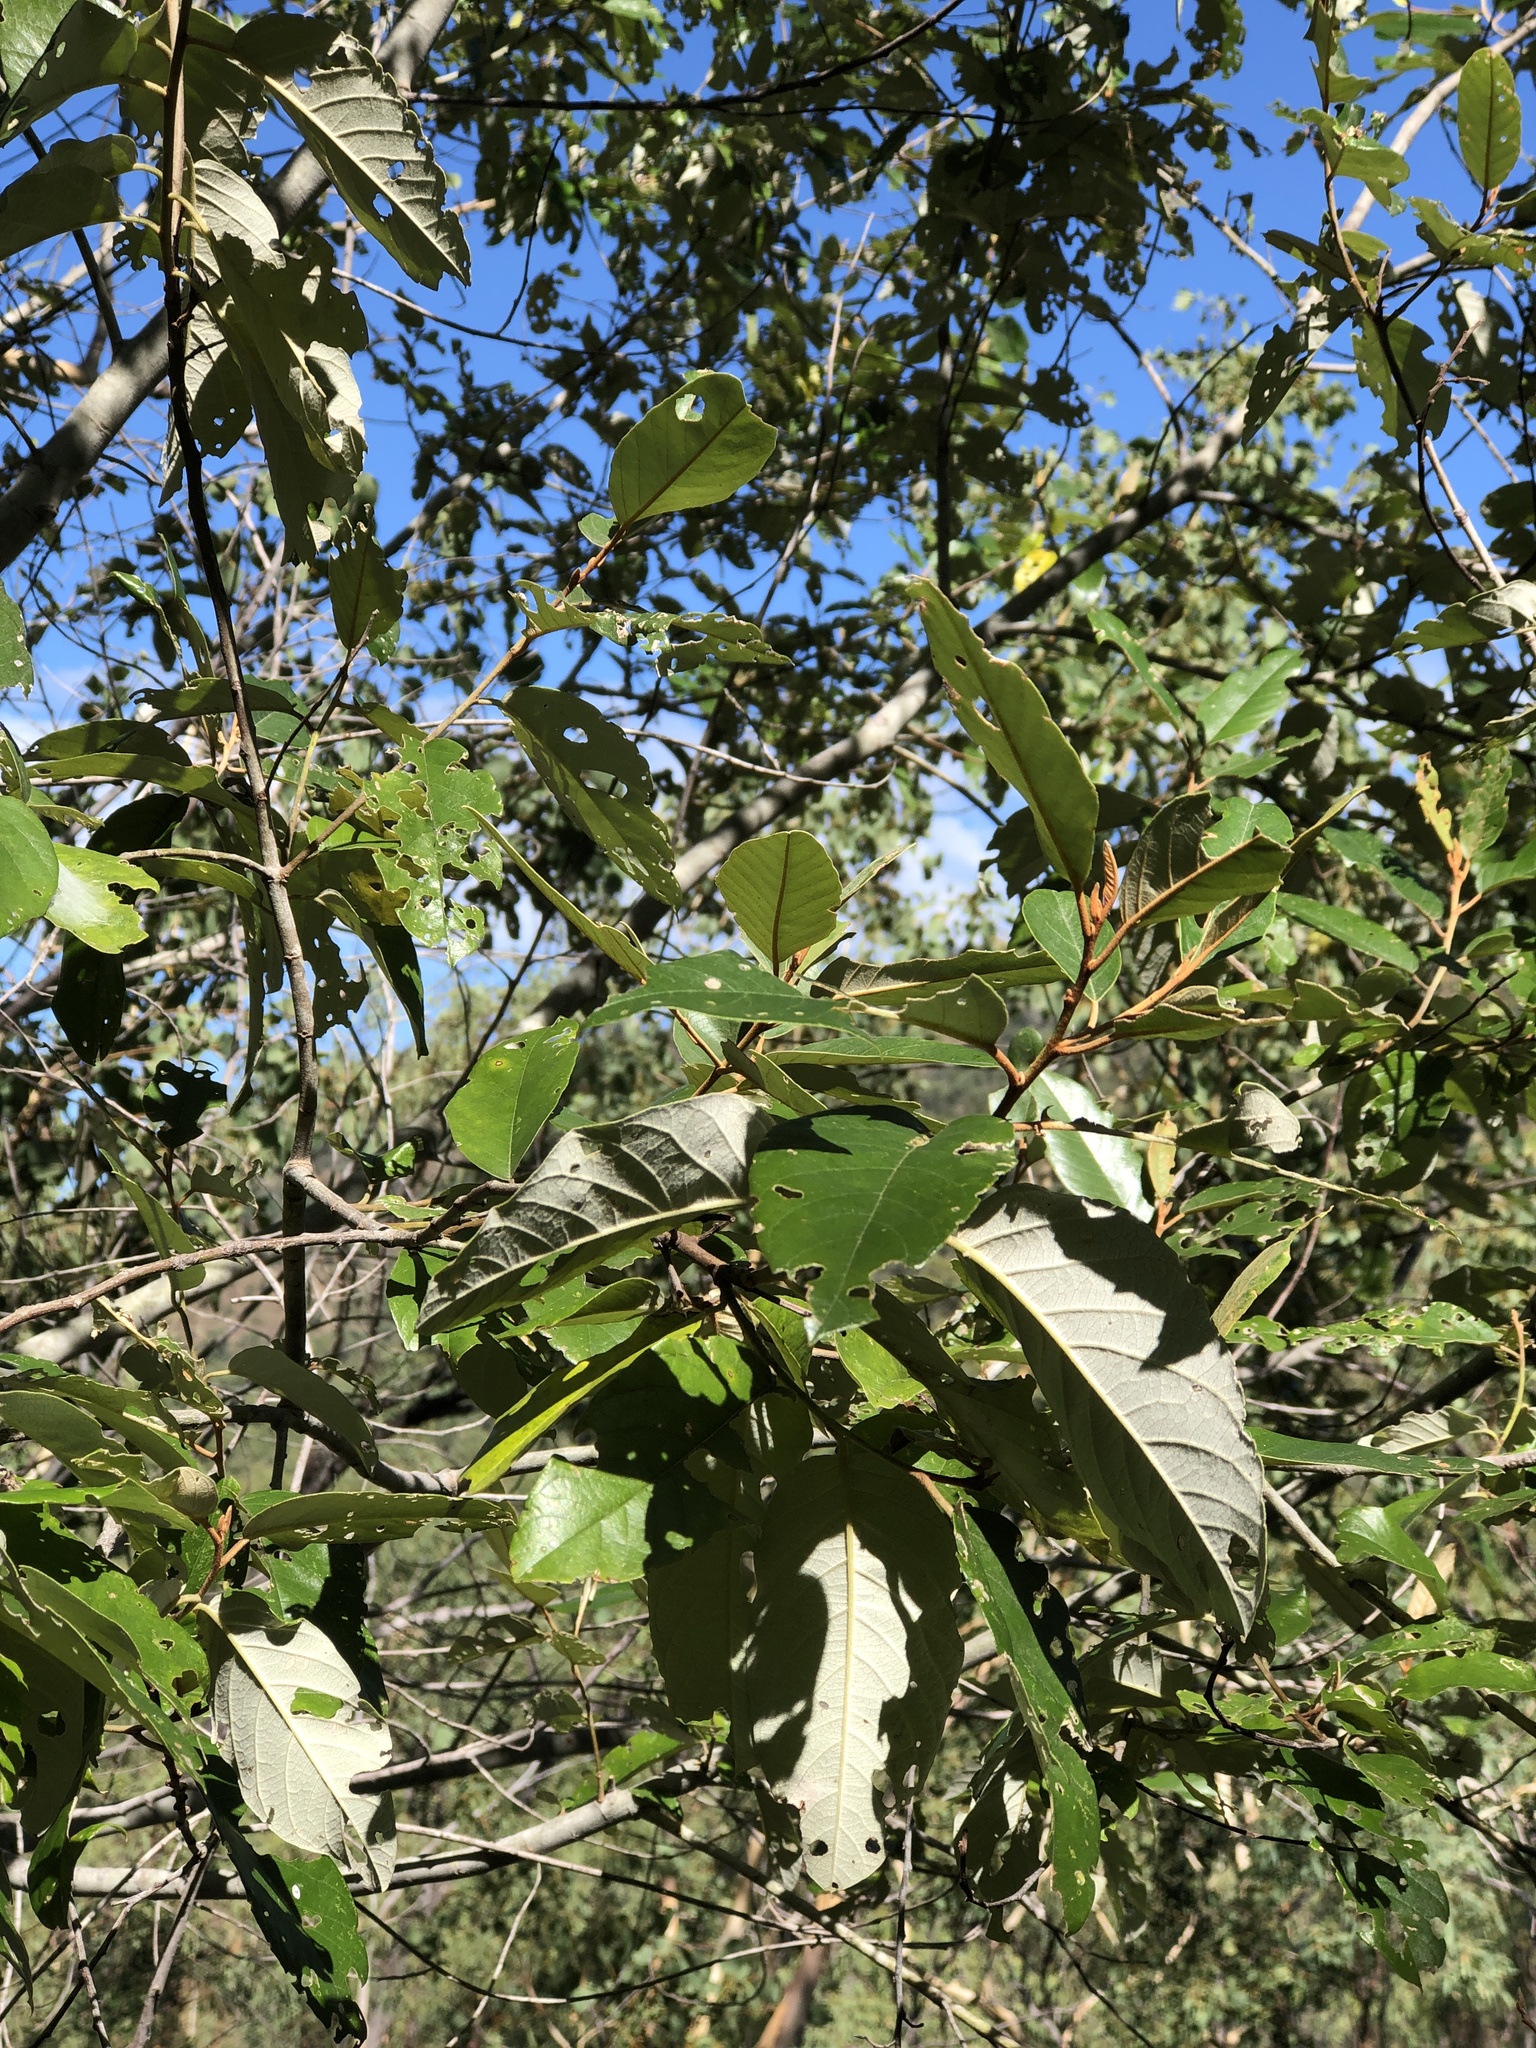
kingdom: Plantae
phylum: Tracheophyta
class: Magnoliopsida
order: Rosales
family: Rhamnaceae
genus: Alphitonia
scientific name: Alphitonia excelsa
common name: Red ash
